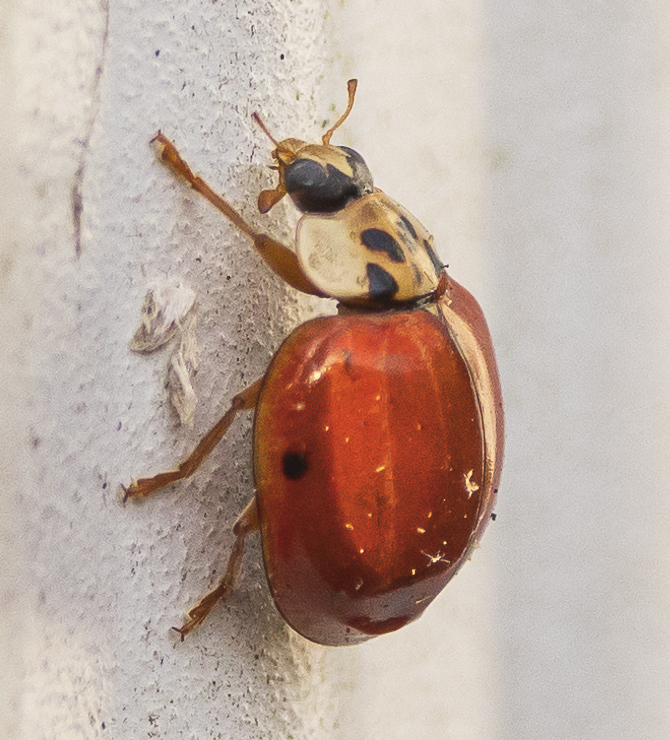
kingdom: Animalia
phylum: Arthropoda
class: Insecta
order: Coleoptera
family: Coccinellidae
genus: Harmonia
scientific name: Harmonia axyridis
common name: Harlequin ladybird
